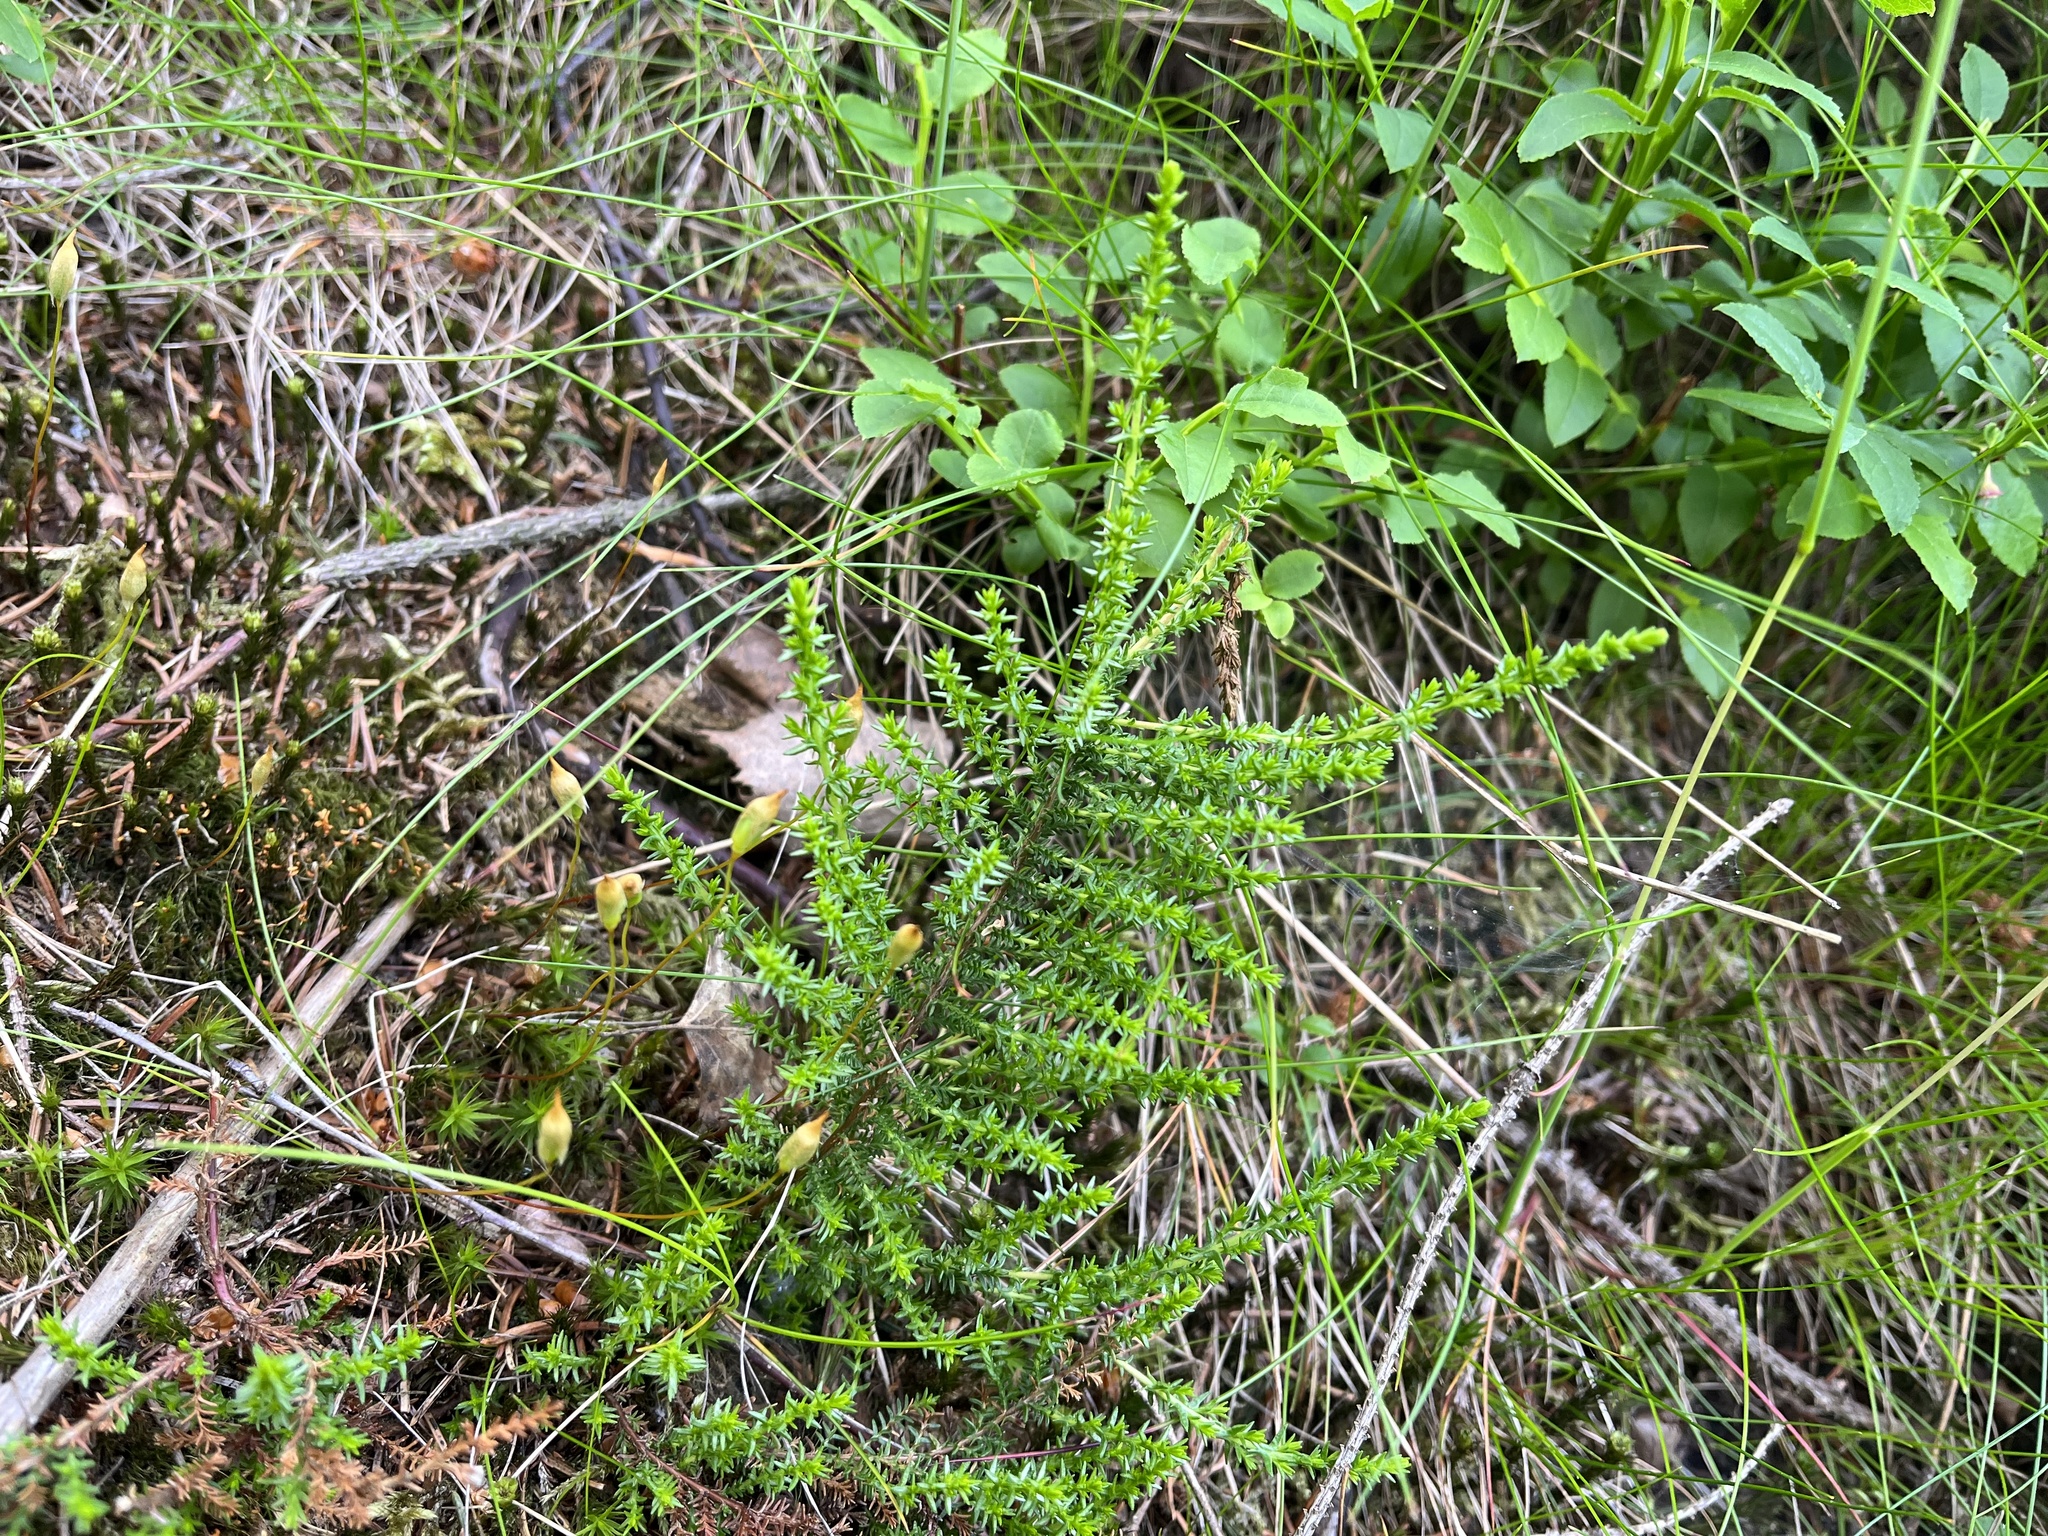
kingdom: Plantae
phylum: Tracheophyta
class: Magnoliopsida
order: Ericales
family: Ericaceae
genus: Calluna
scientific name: Calluna vulgaris
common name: Heather
